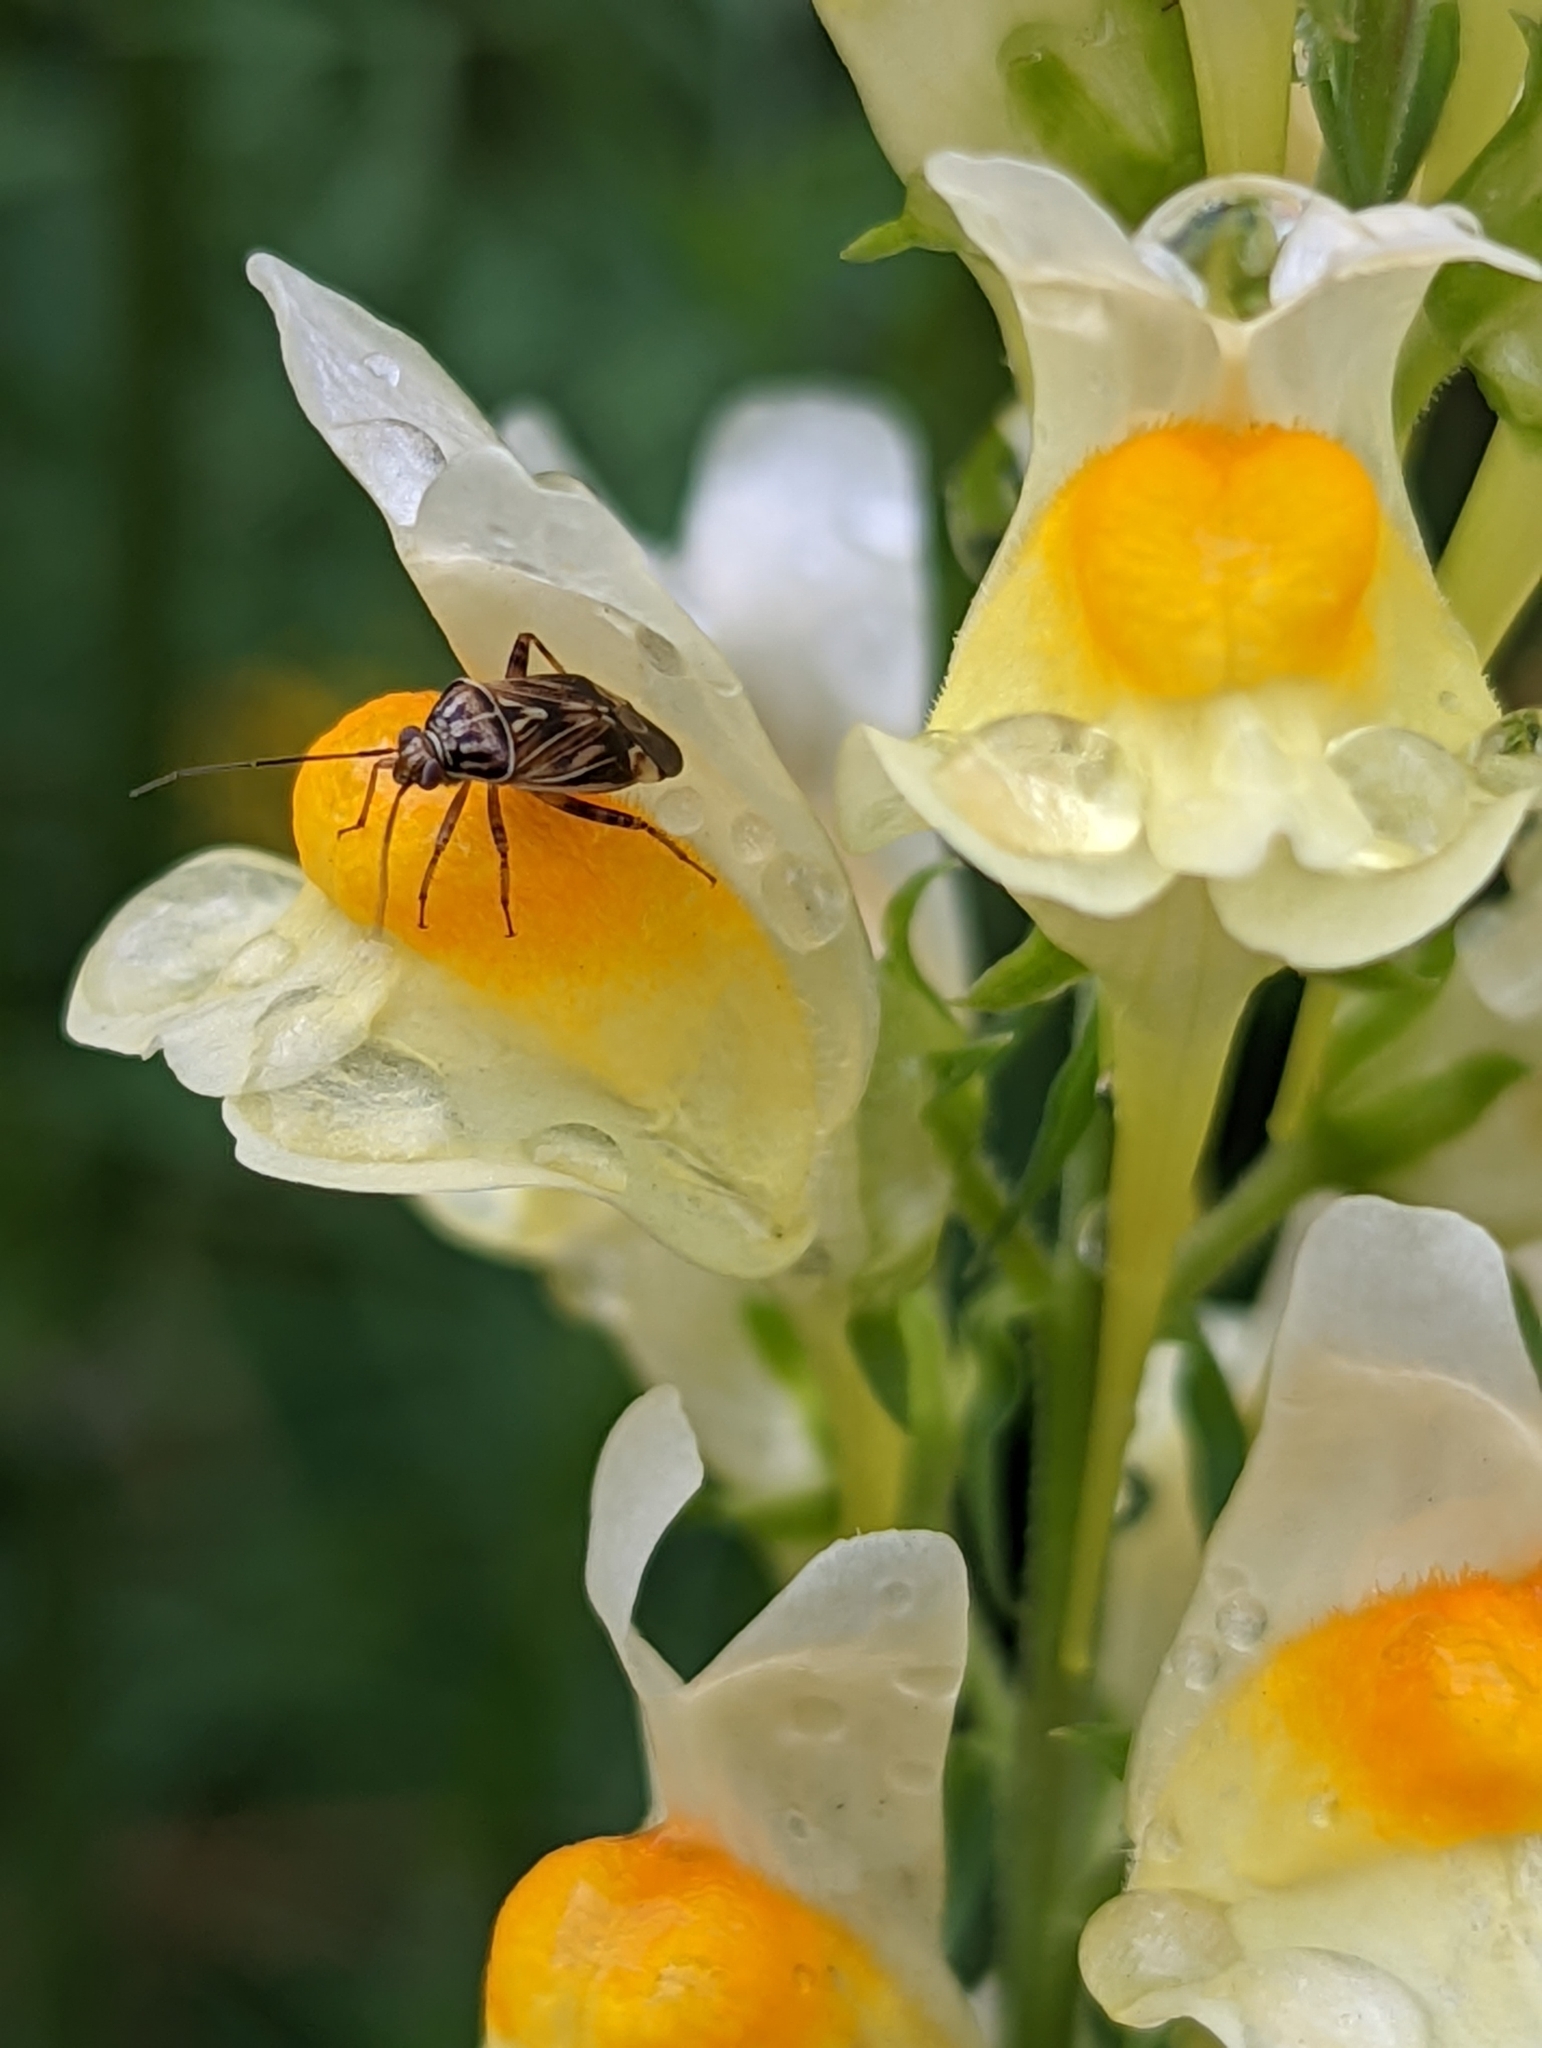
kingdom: Animalia
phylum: Arthropoda
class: Insecta
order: Hemiptera
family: Miridae
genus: Lygus
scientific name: Lygus lineolaris
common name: North american tarnished plant bug
